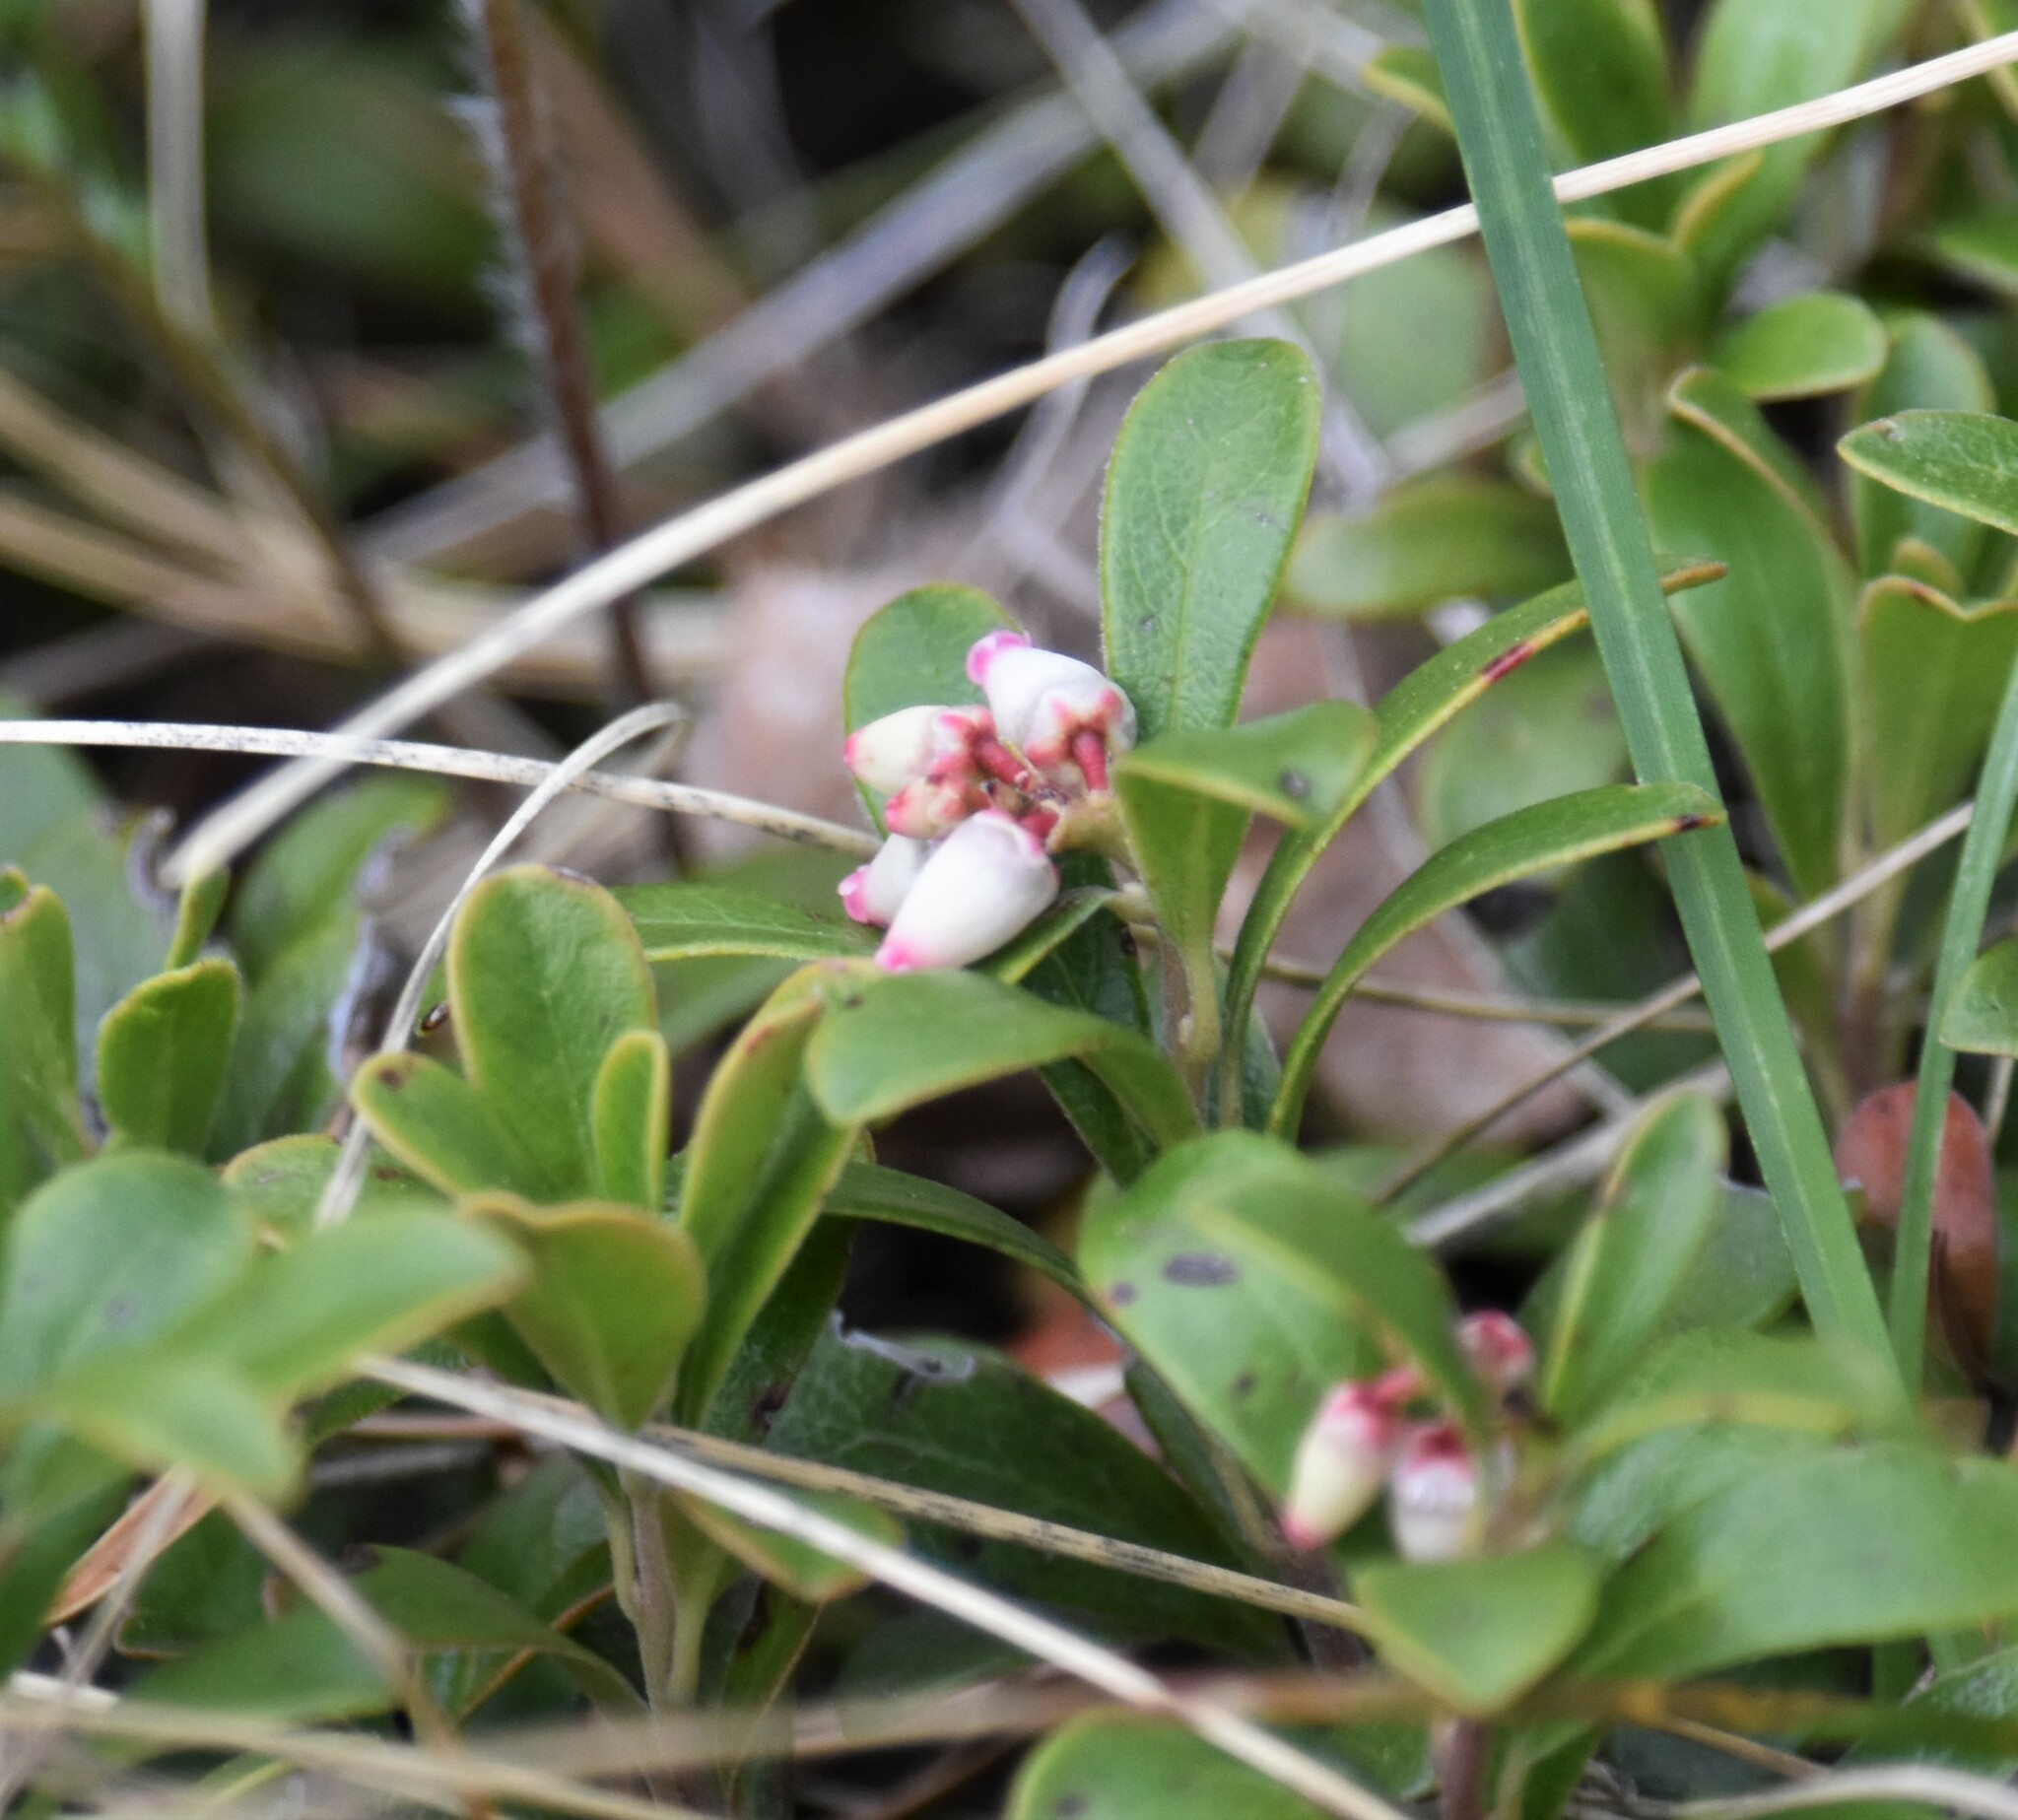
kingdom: Plantae
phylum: Tracheophyta
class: Magnoliopsida
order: Ericales
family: Ericaceae
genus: Arctostaphylos
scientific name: Arctostaphylos uva-ursi
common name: Bearberry
